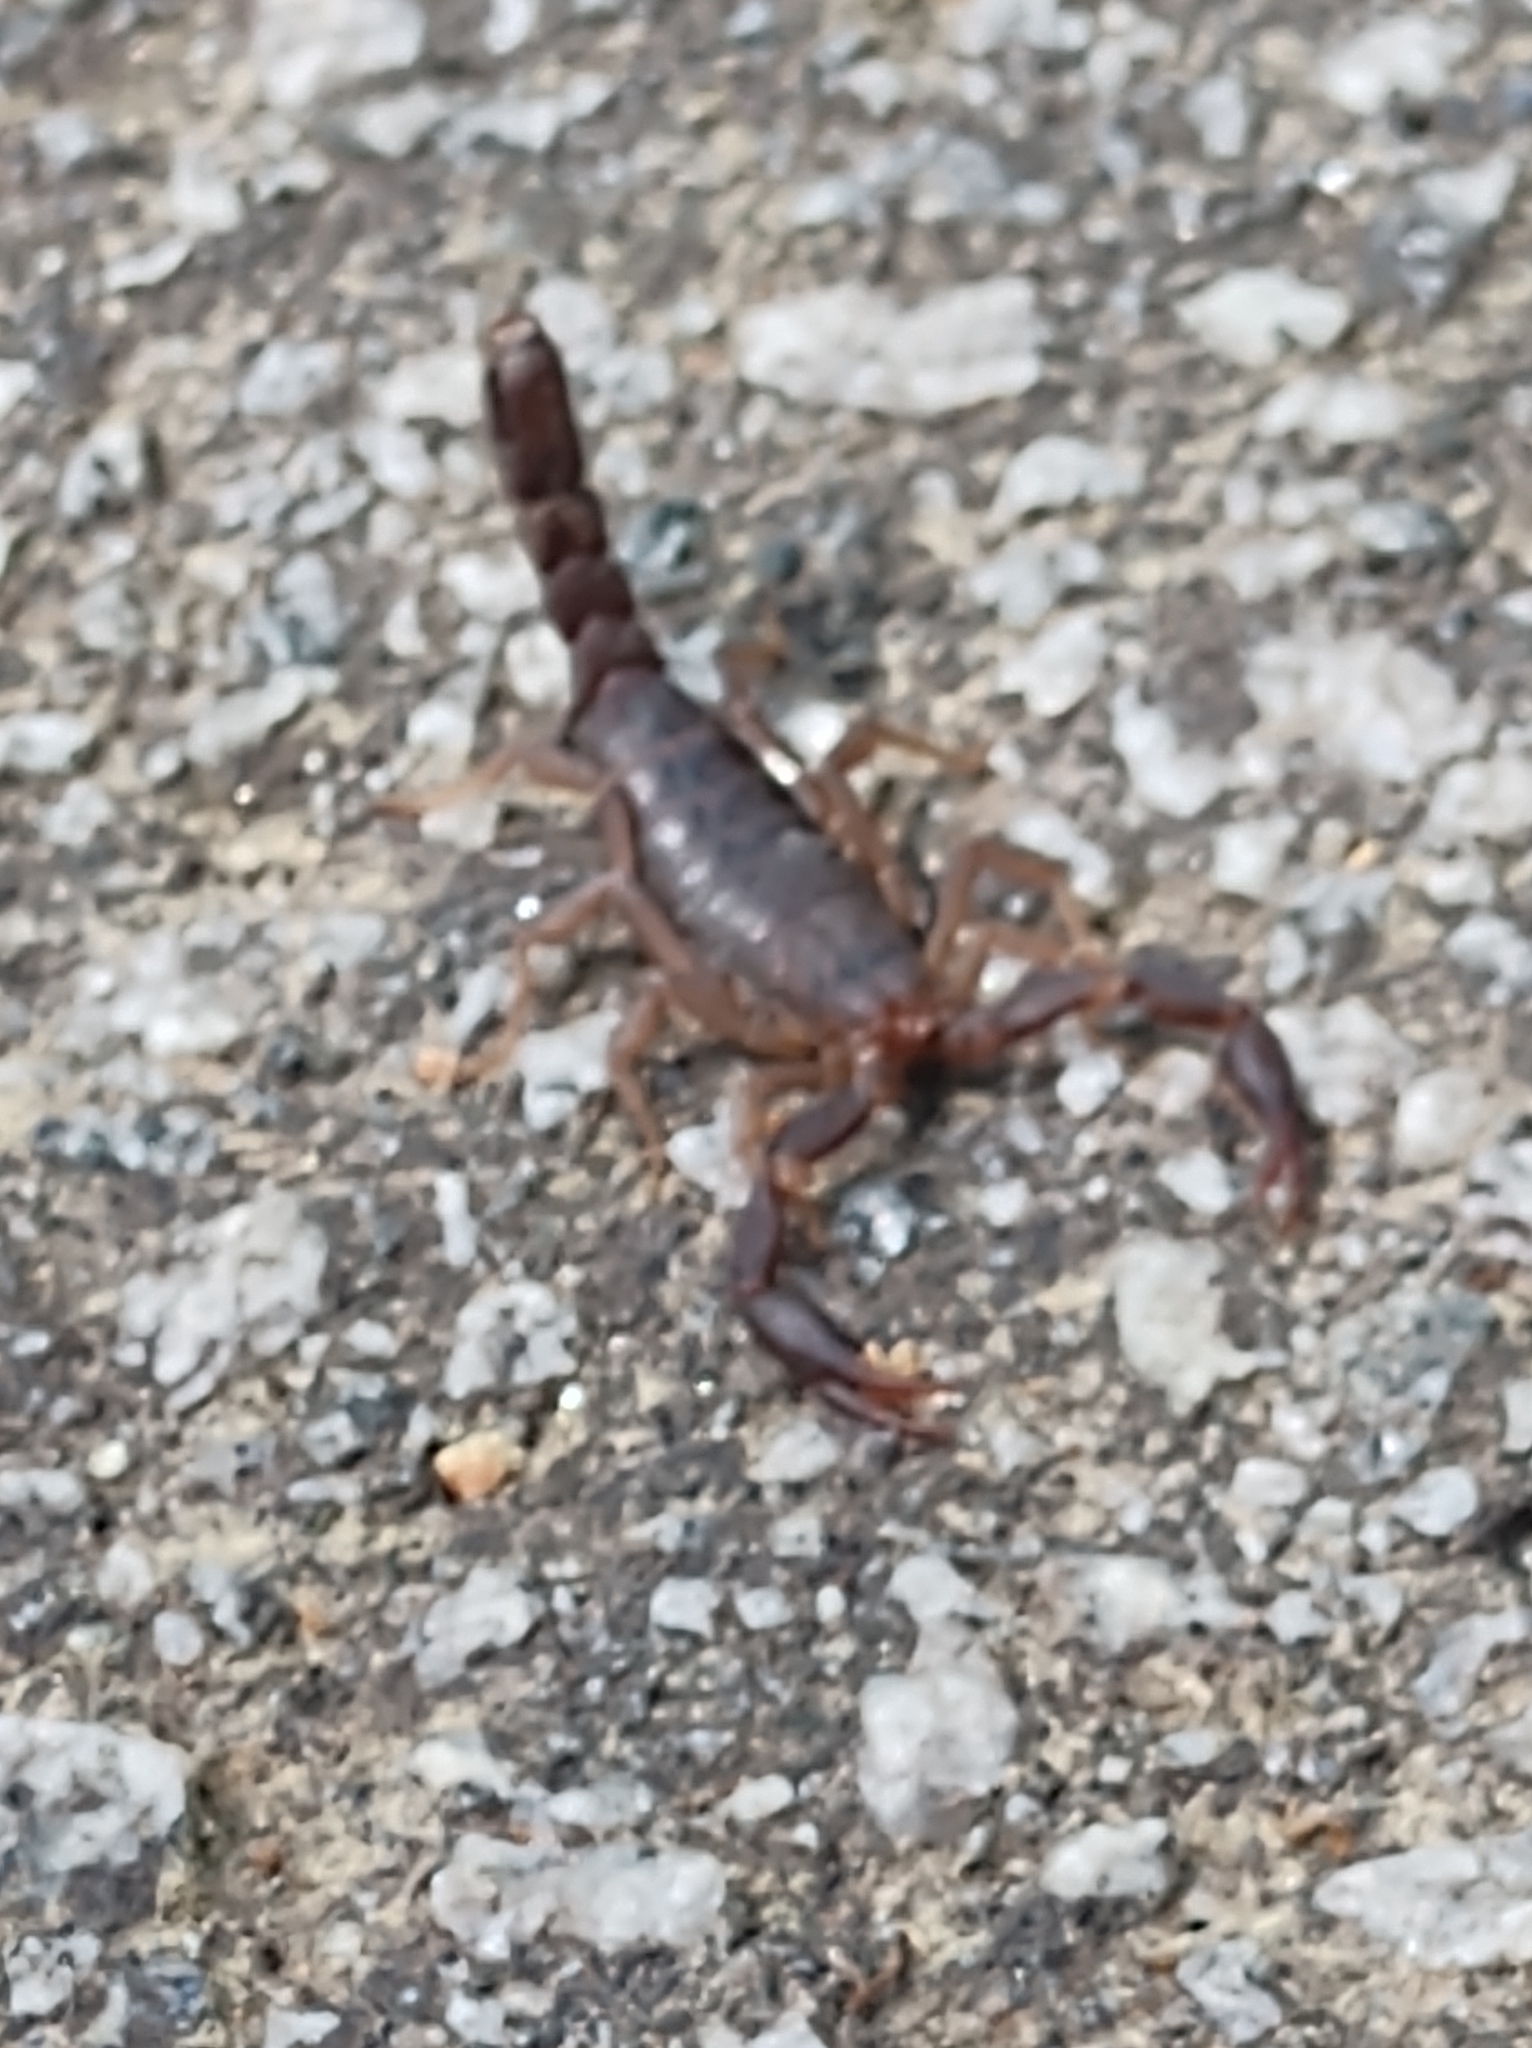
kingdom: Animalia
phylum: Arthropoda
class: Arachnida
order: Scorpiones
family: Vaejovidae
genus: Vaejovis
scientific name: Vaejovis carolinianus
